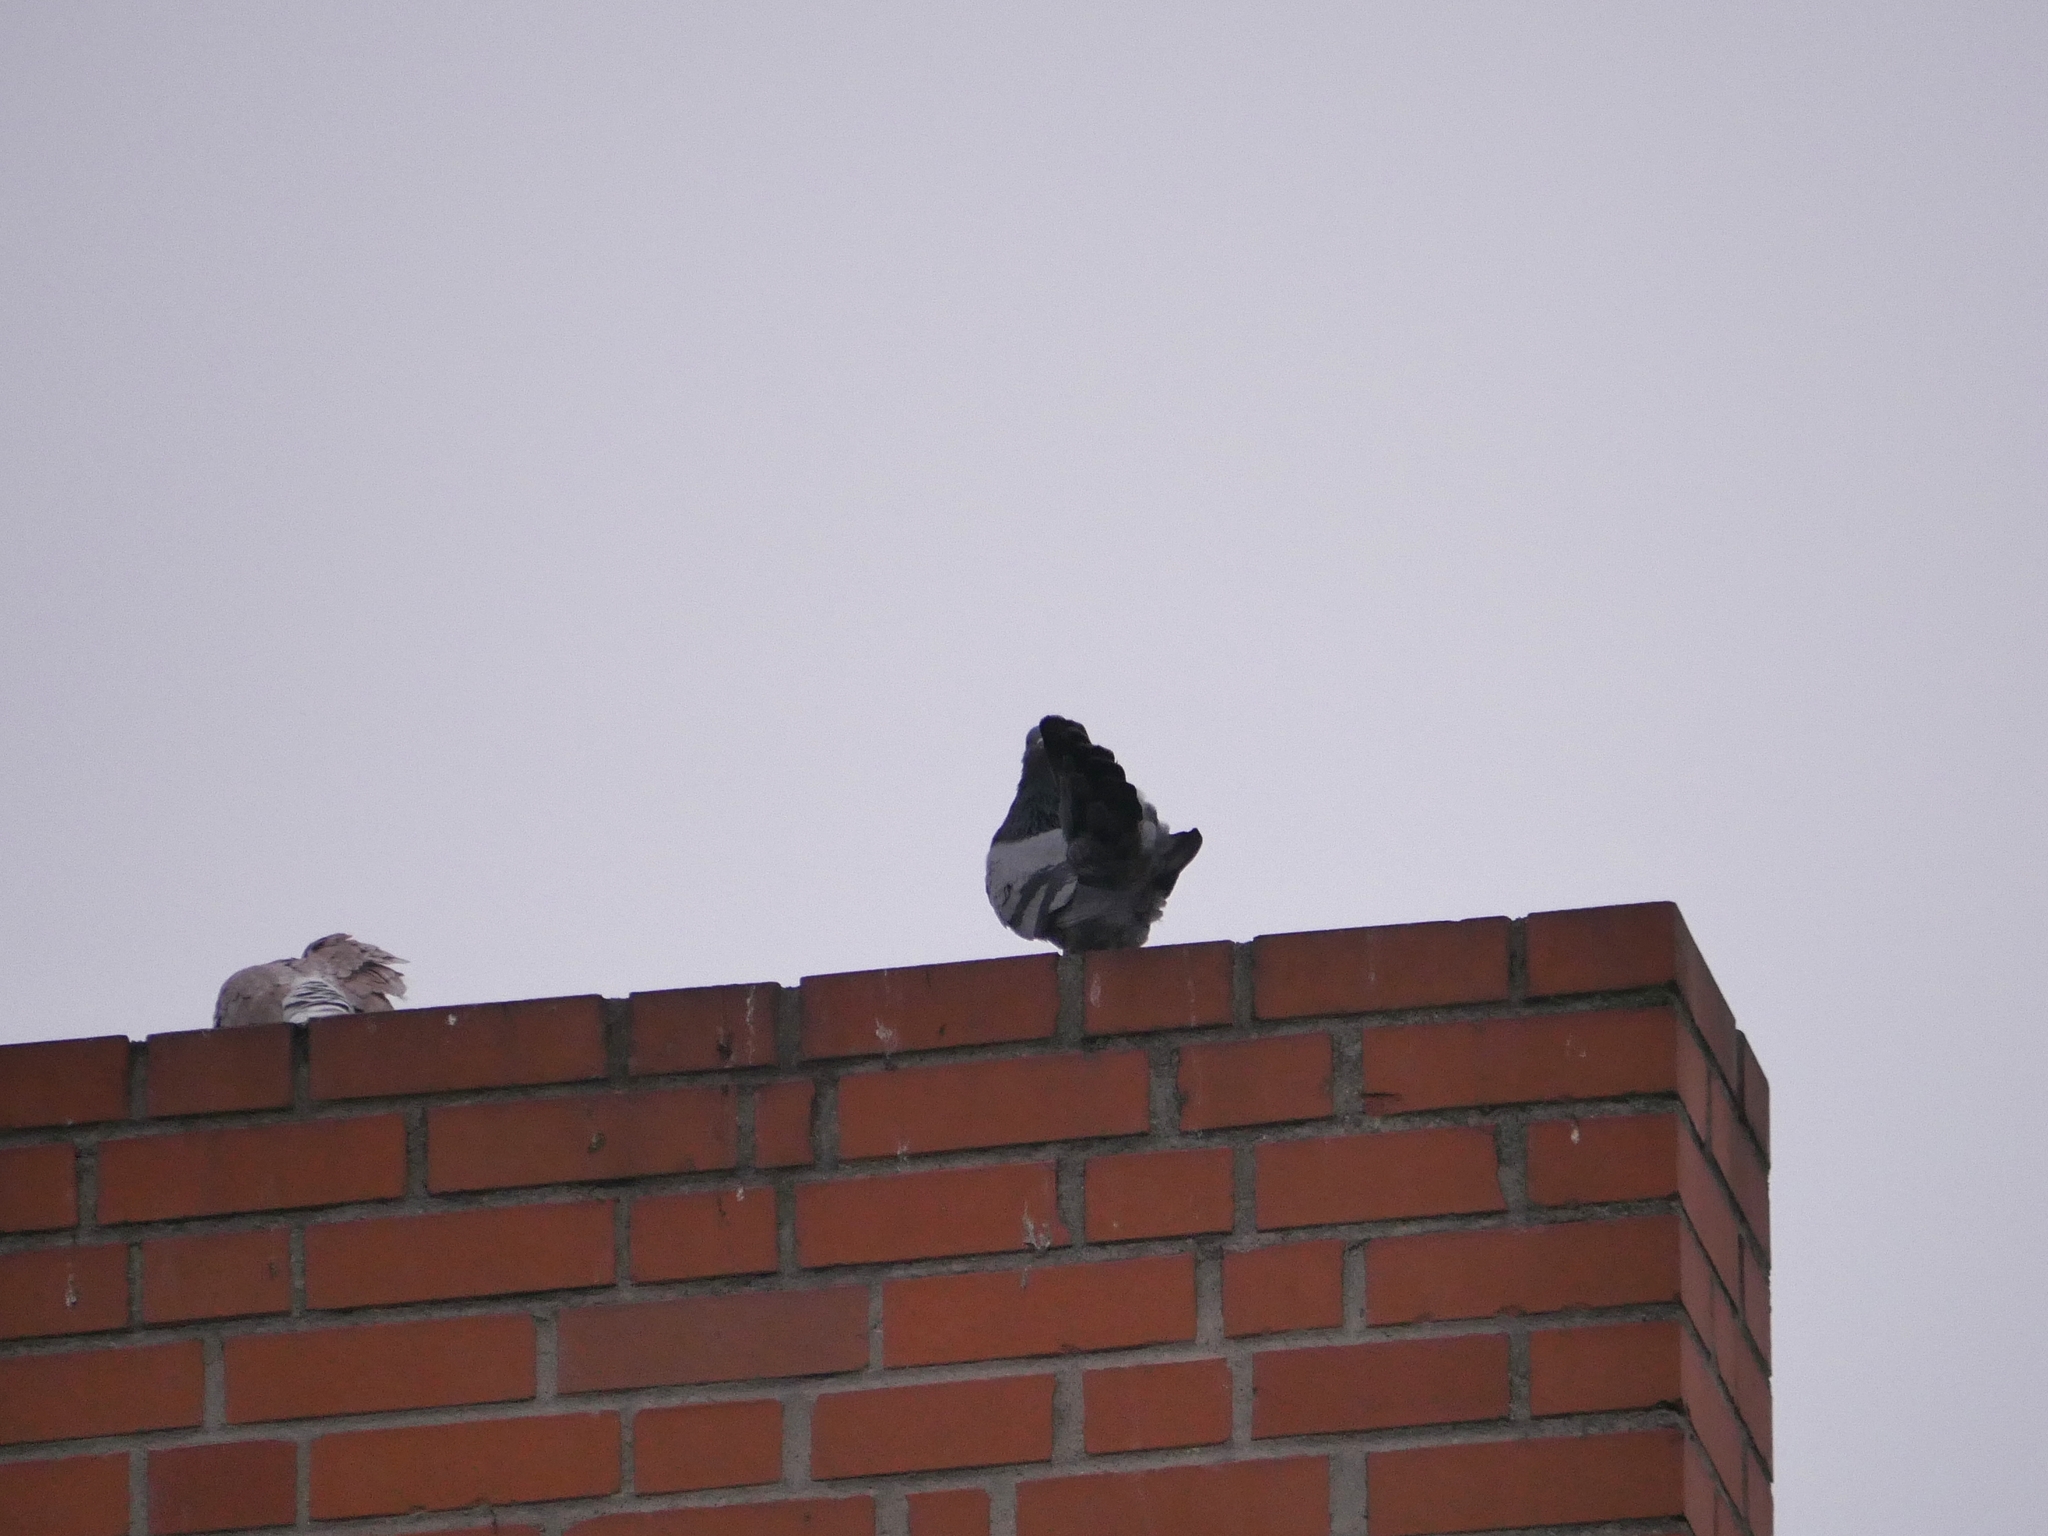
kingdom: Animalia
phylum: Chordata
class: Aves
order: Columbiformes
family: Columbidae
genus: Columba
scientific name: Columba livia
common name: Rock pigeon
